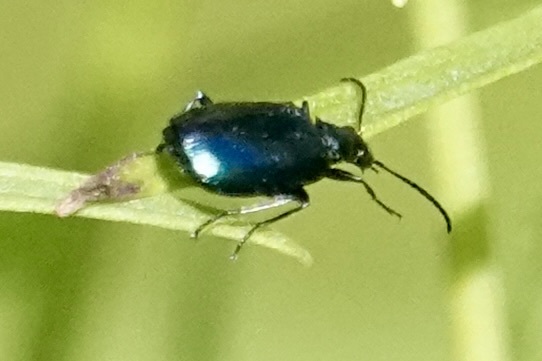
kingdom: Animalia
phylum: Arthropoda
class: Insecta
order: Coleoptera
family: Carabidae
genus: Lebia
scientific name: Lebia viridis
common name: Flower lebia beetle
